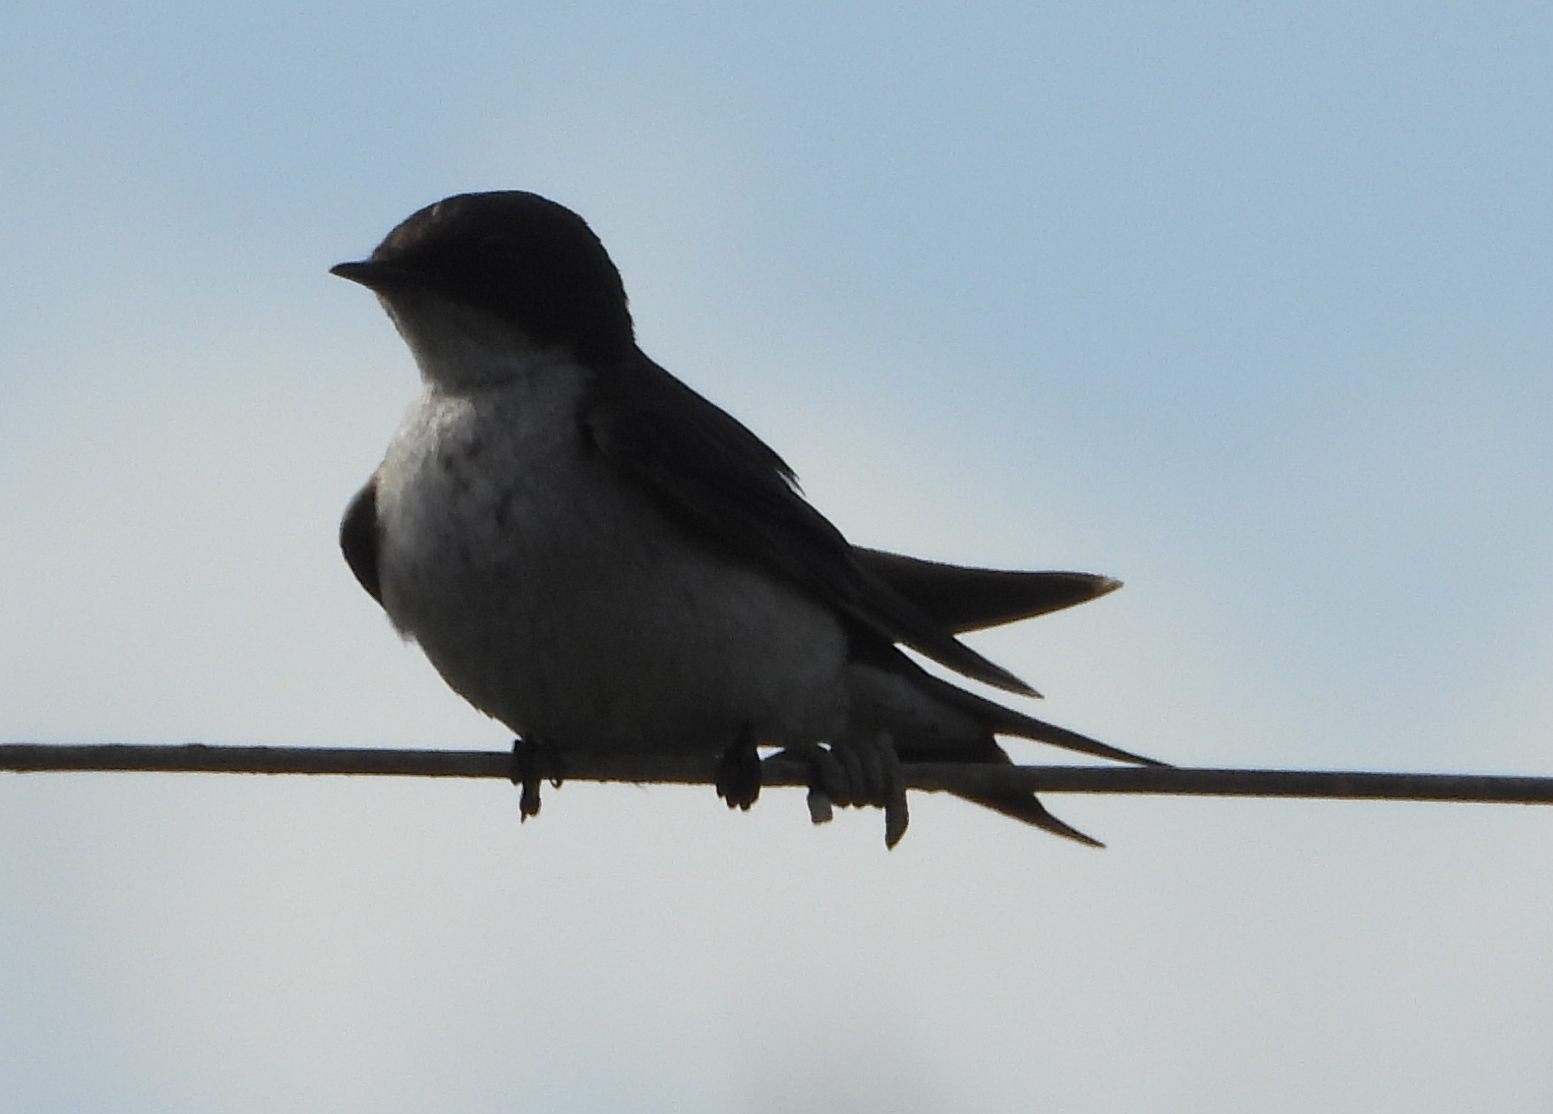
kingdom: Animalia
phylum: Chordata
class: Aves
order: Passeriformes
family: Hirundinidae
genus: Hirundo
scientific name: Hirundo dimidiata
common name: Pearl-breasted swallow
